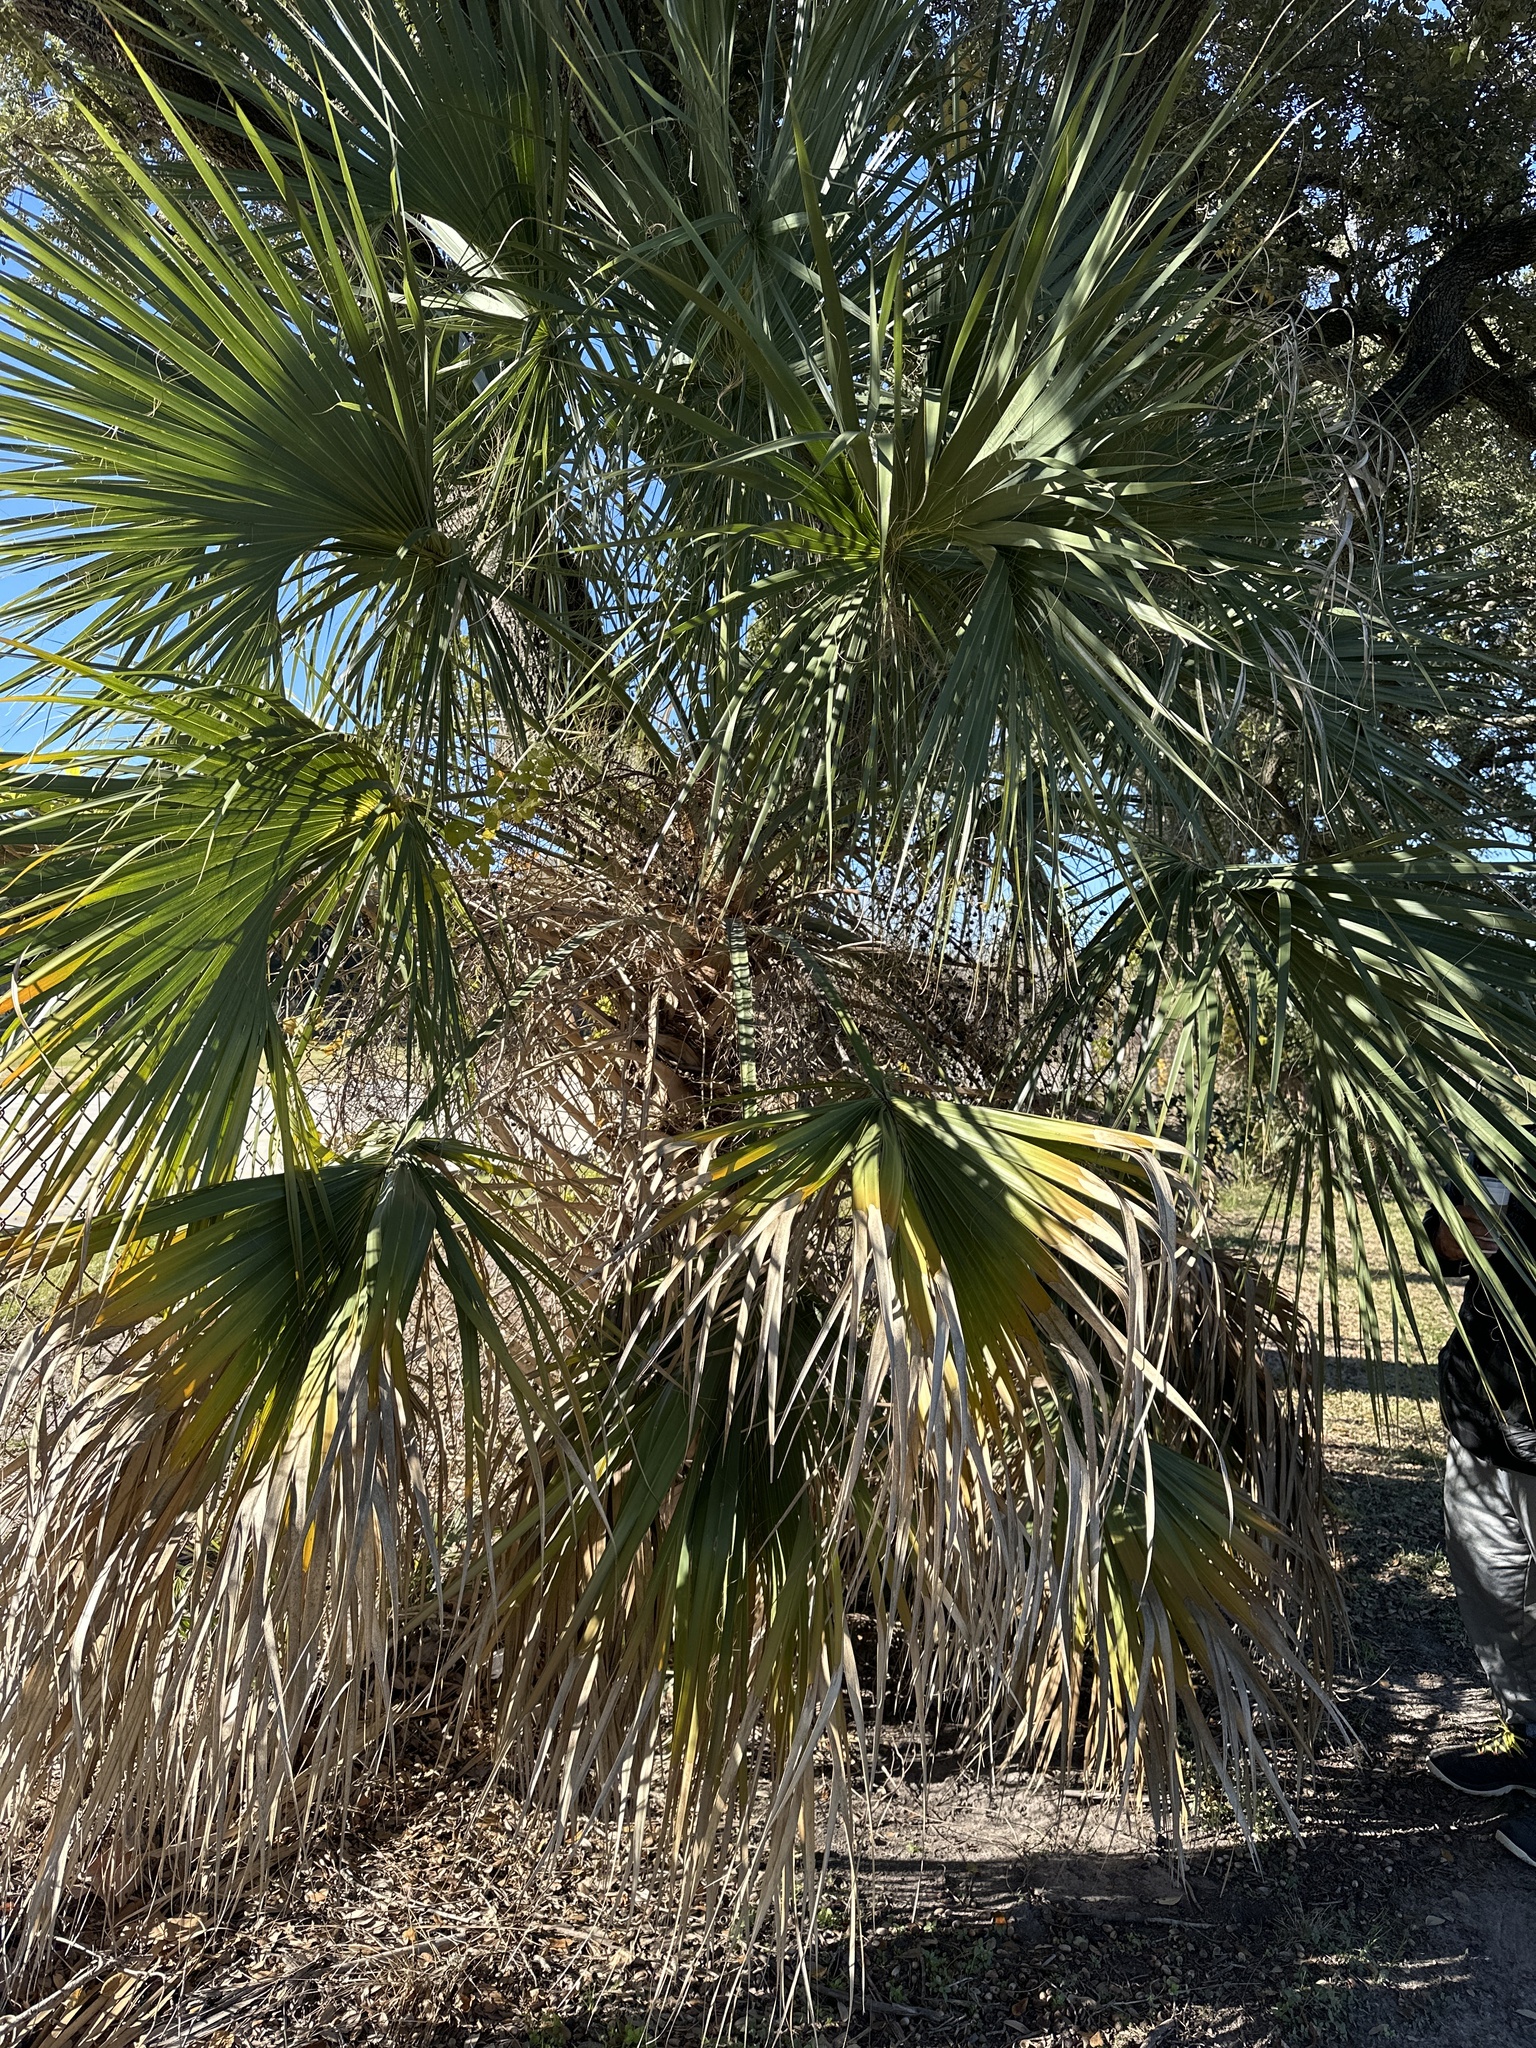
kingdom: Plantae
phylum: Tracheophyta
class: Liliopsida
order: Arecales
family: Arecaceae
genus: Sabal
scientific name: Sabal mexicana
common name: Texas palmetto
